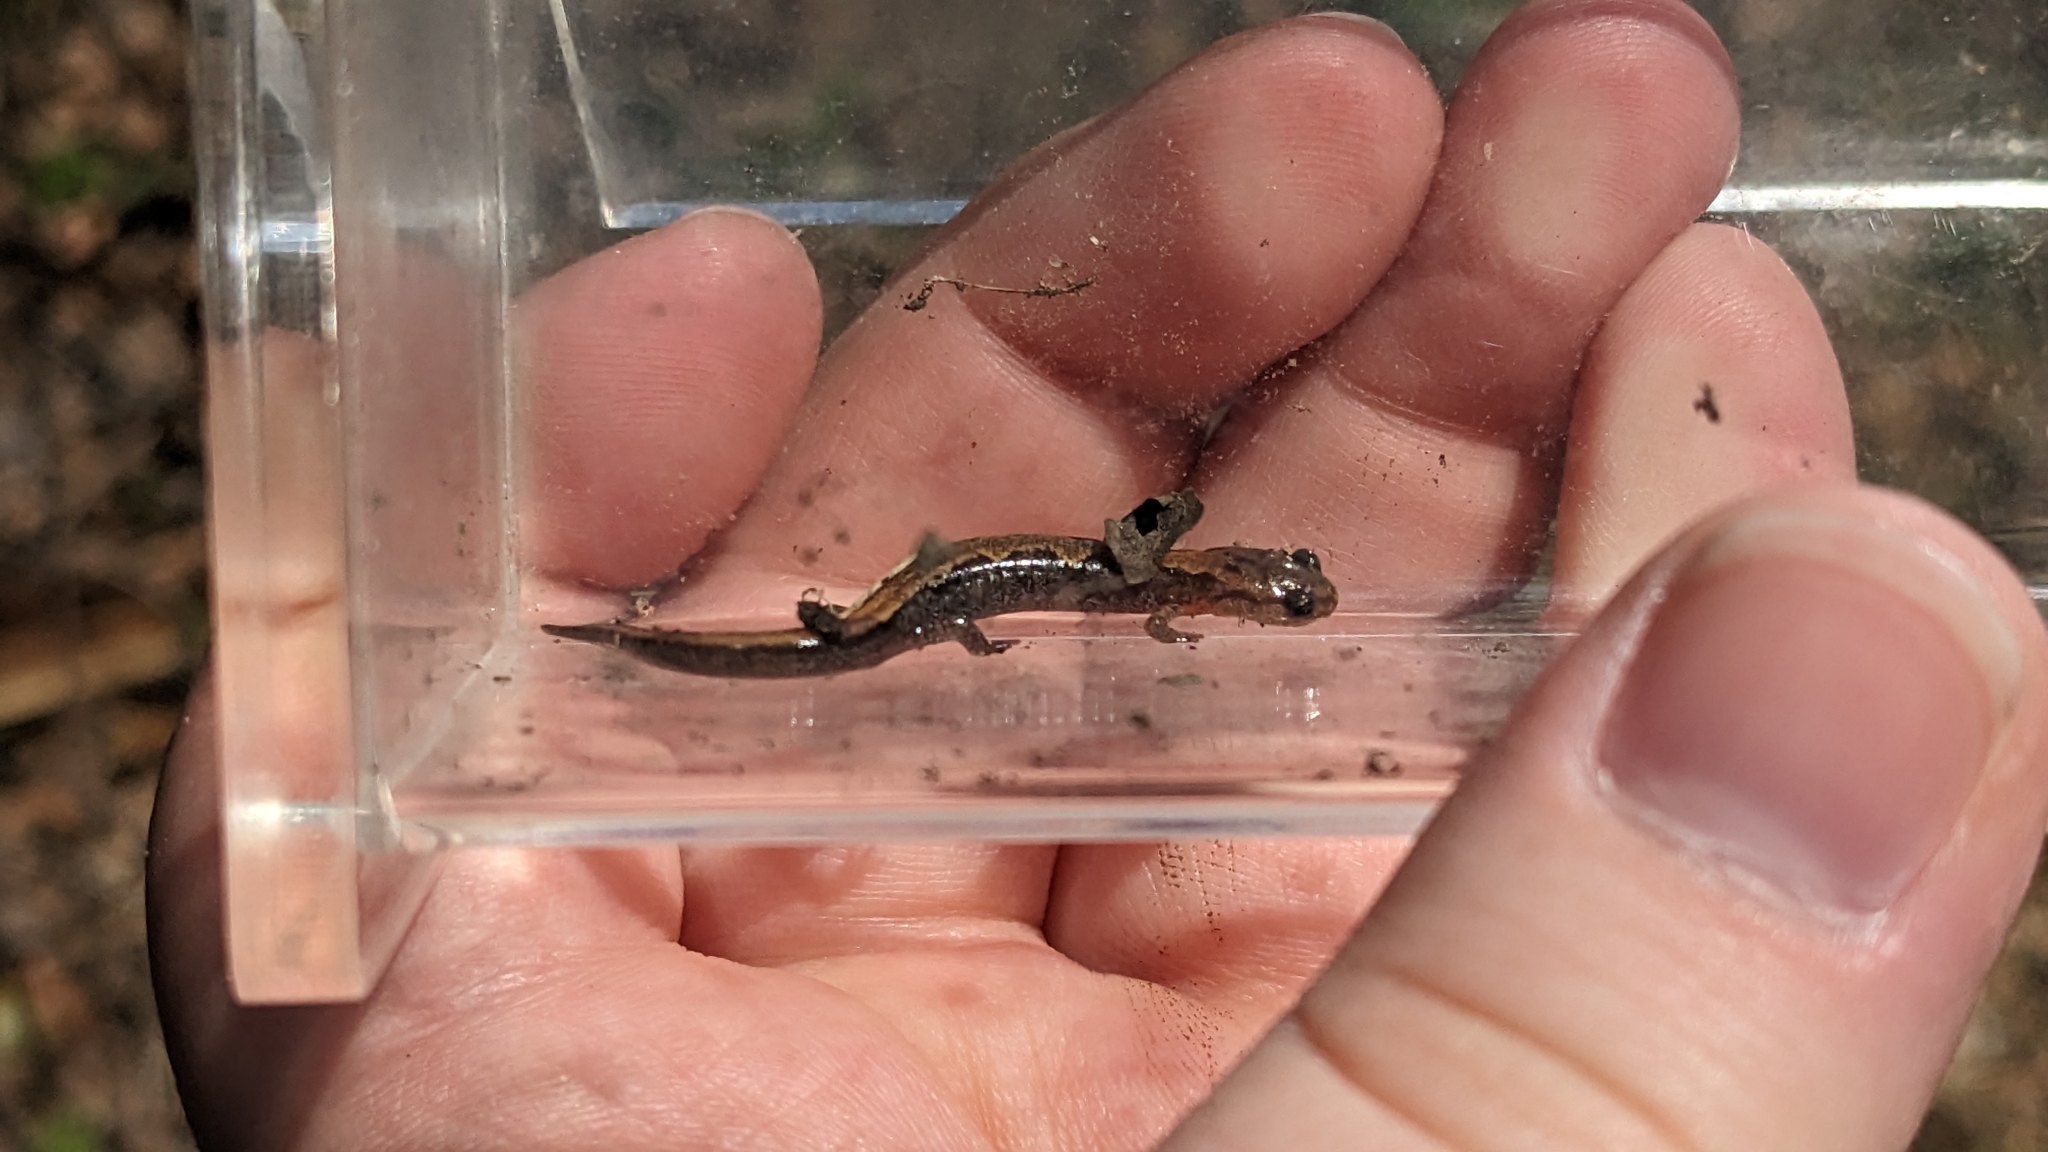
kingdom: Animalia
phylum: Chordata
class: Amphibia
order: Caudata
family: Plethodontidae
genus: Plethodon
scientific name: Plethodon dorsalis
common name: Northern zigzag salamander
